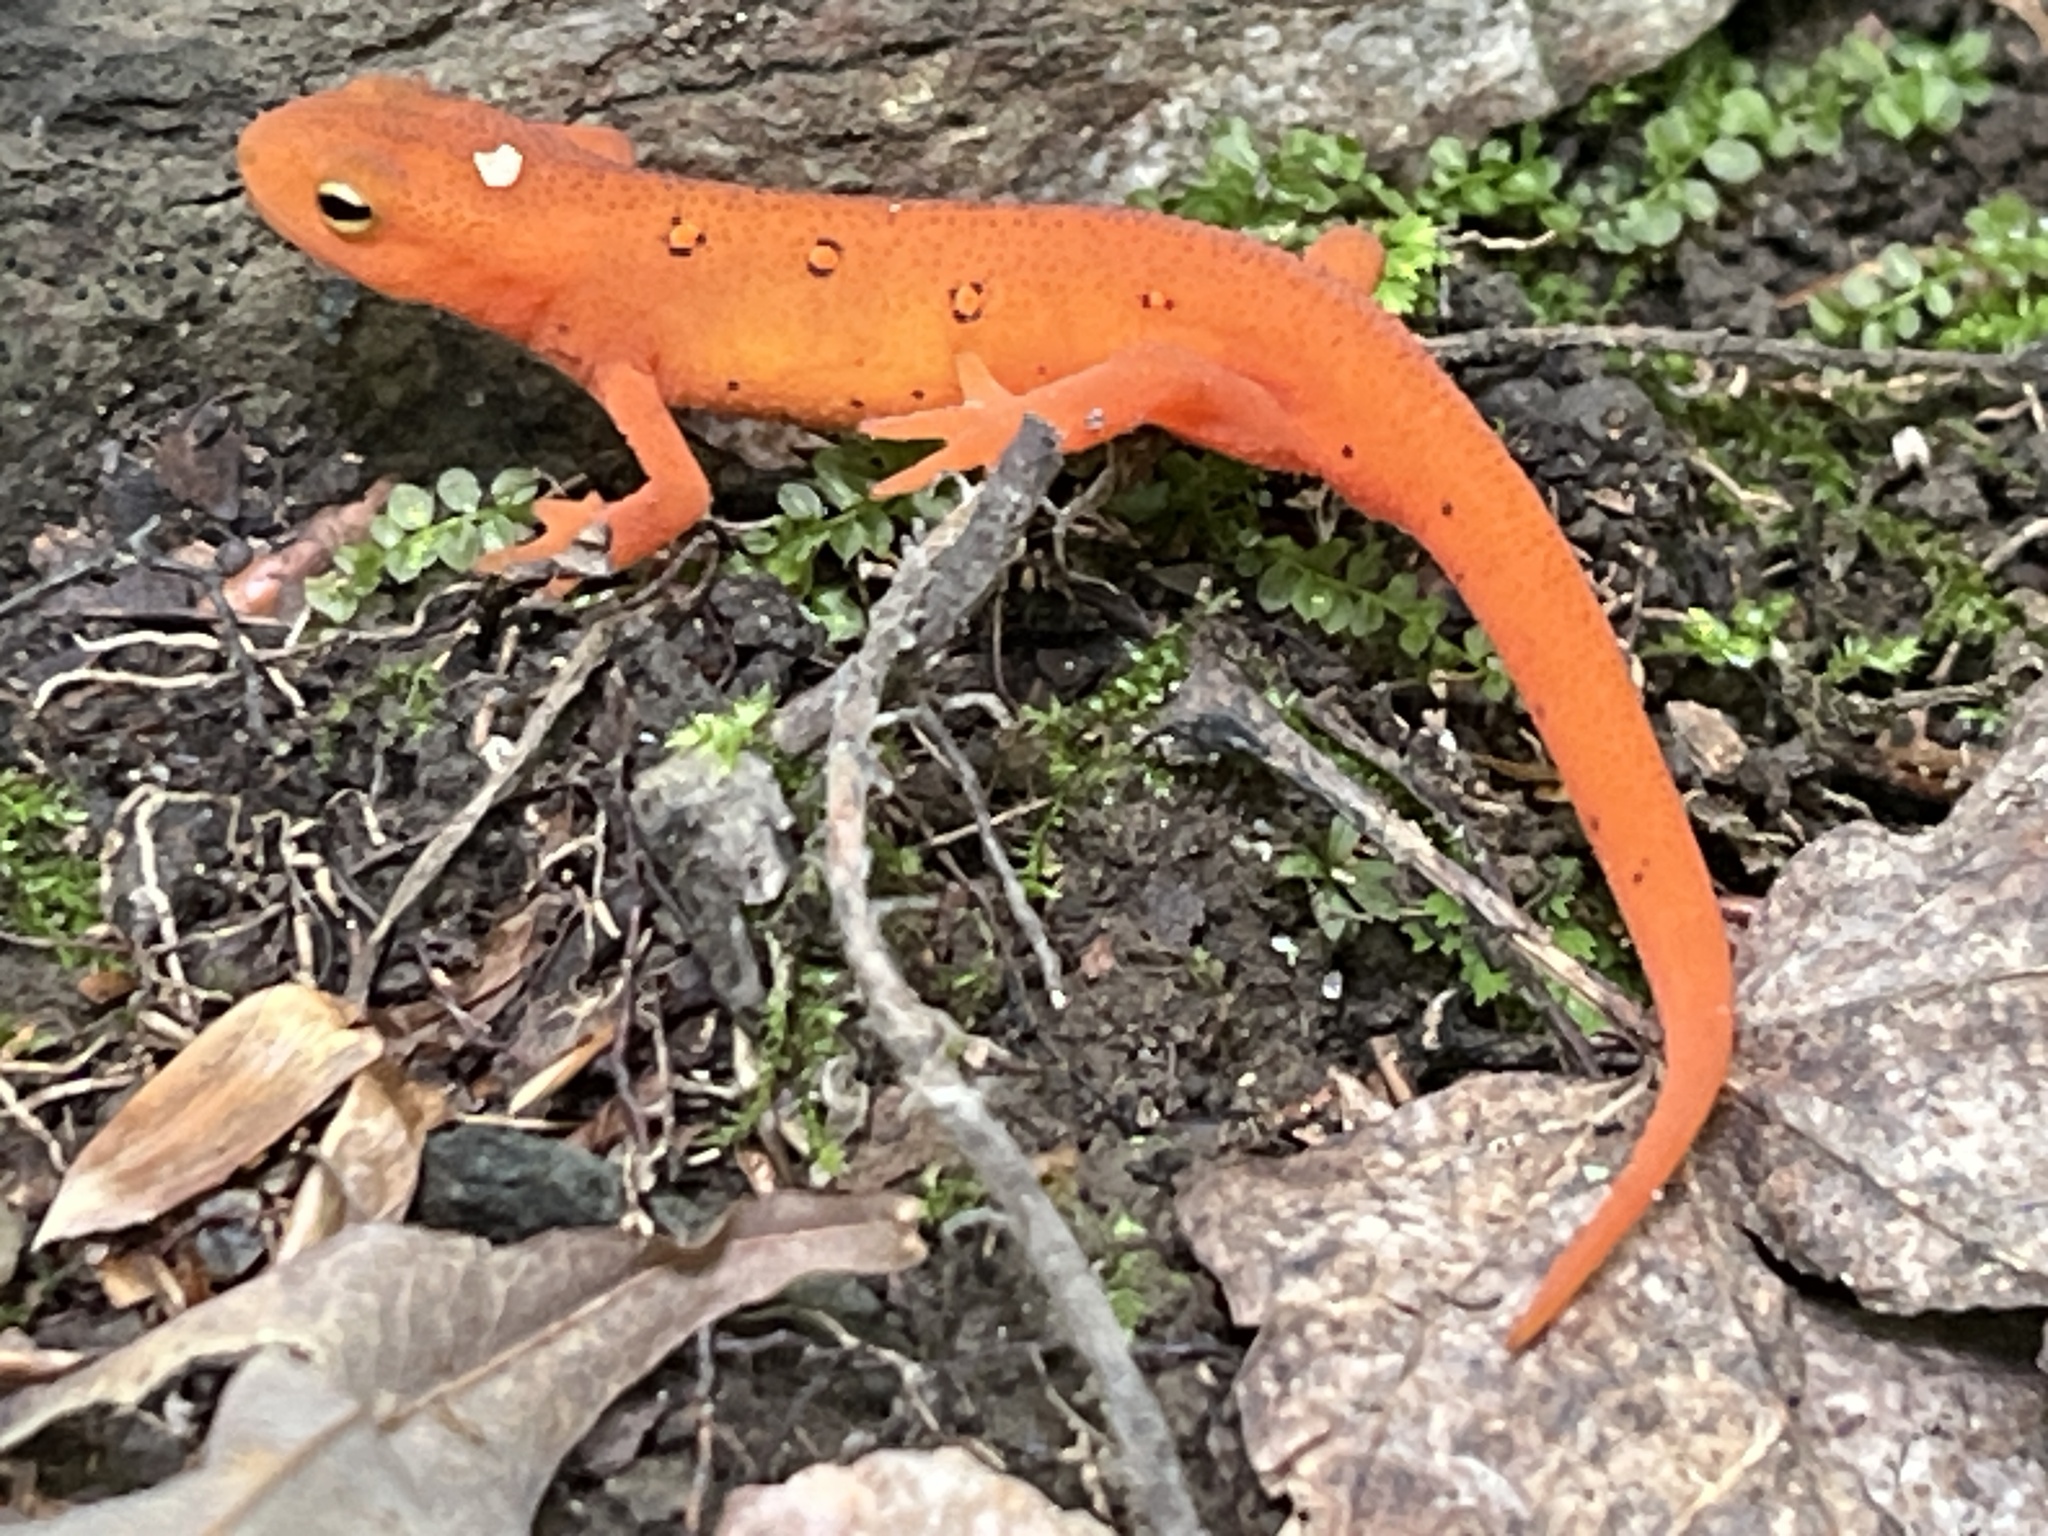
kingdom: Animalia
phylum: Chordata
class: Amphibia
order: Caudata
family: Salamandridae
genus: Notophthalmus
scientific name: Notophthalmus viridescens
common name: Eastern newt
